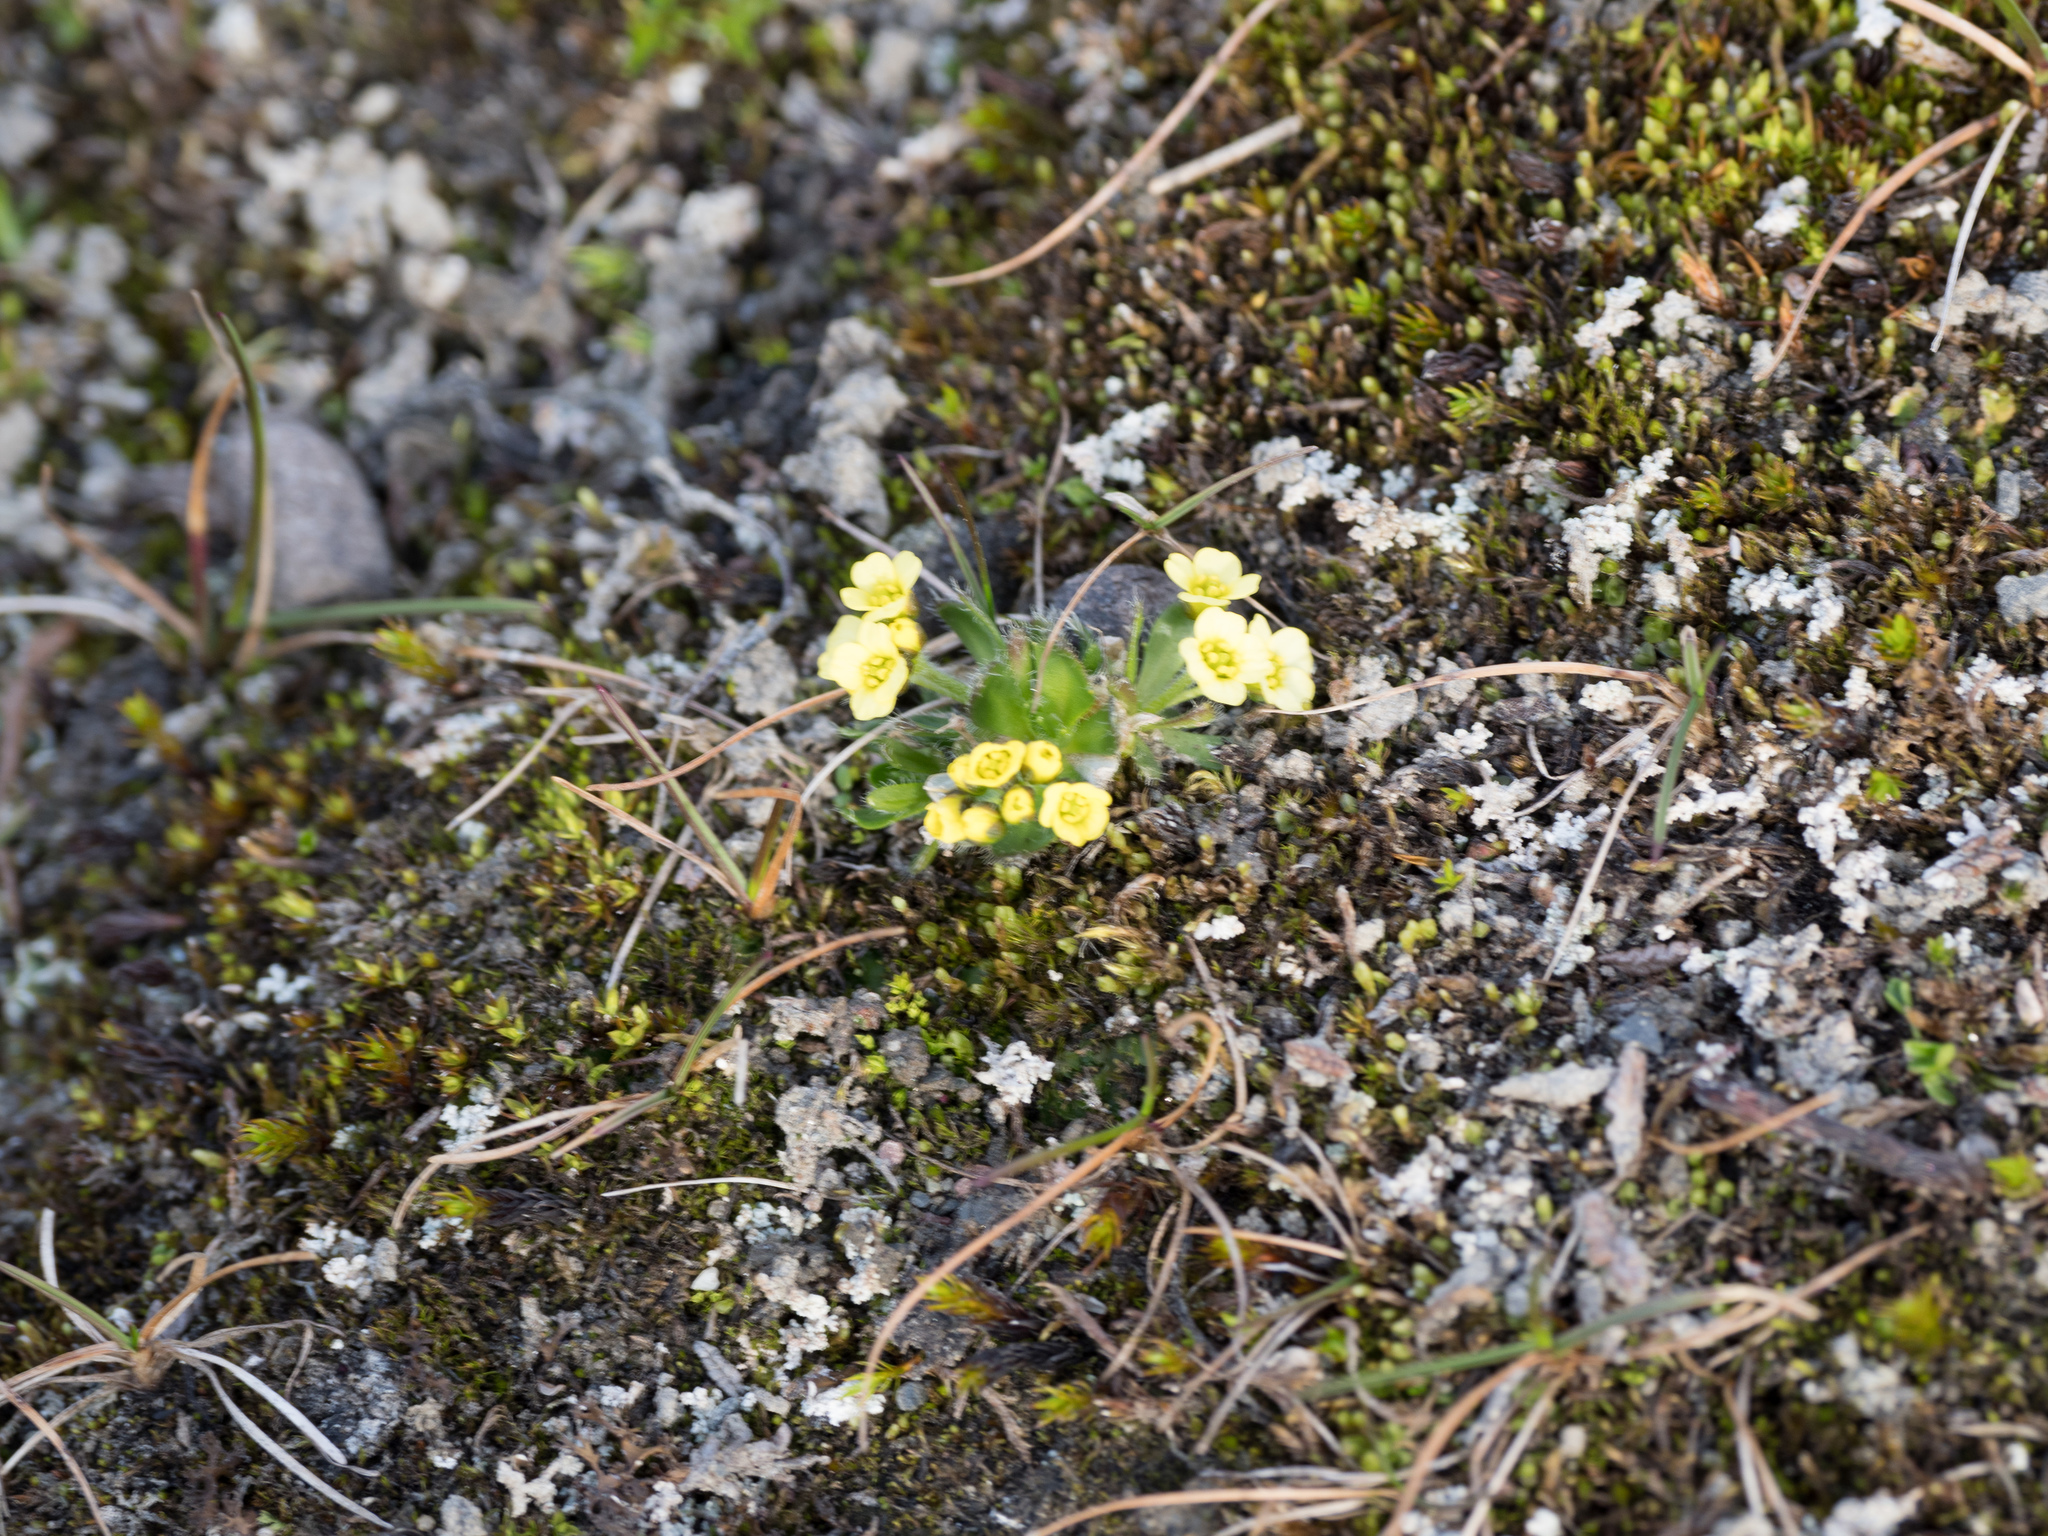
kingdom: Plantae
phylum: Tracheophyta
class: Magnoliopsida
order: Ranunculales
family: Ranunculaceae
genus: Ranunculus
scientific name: Ranunculus sulphureus
